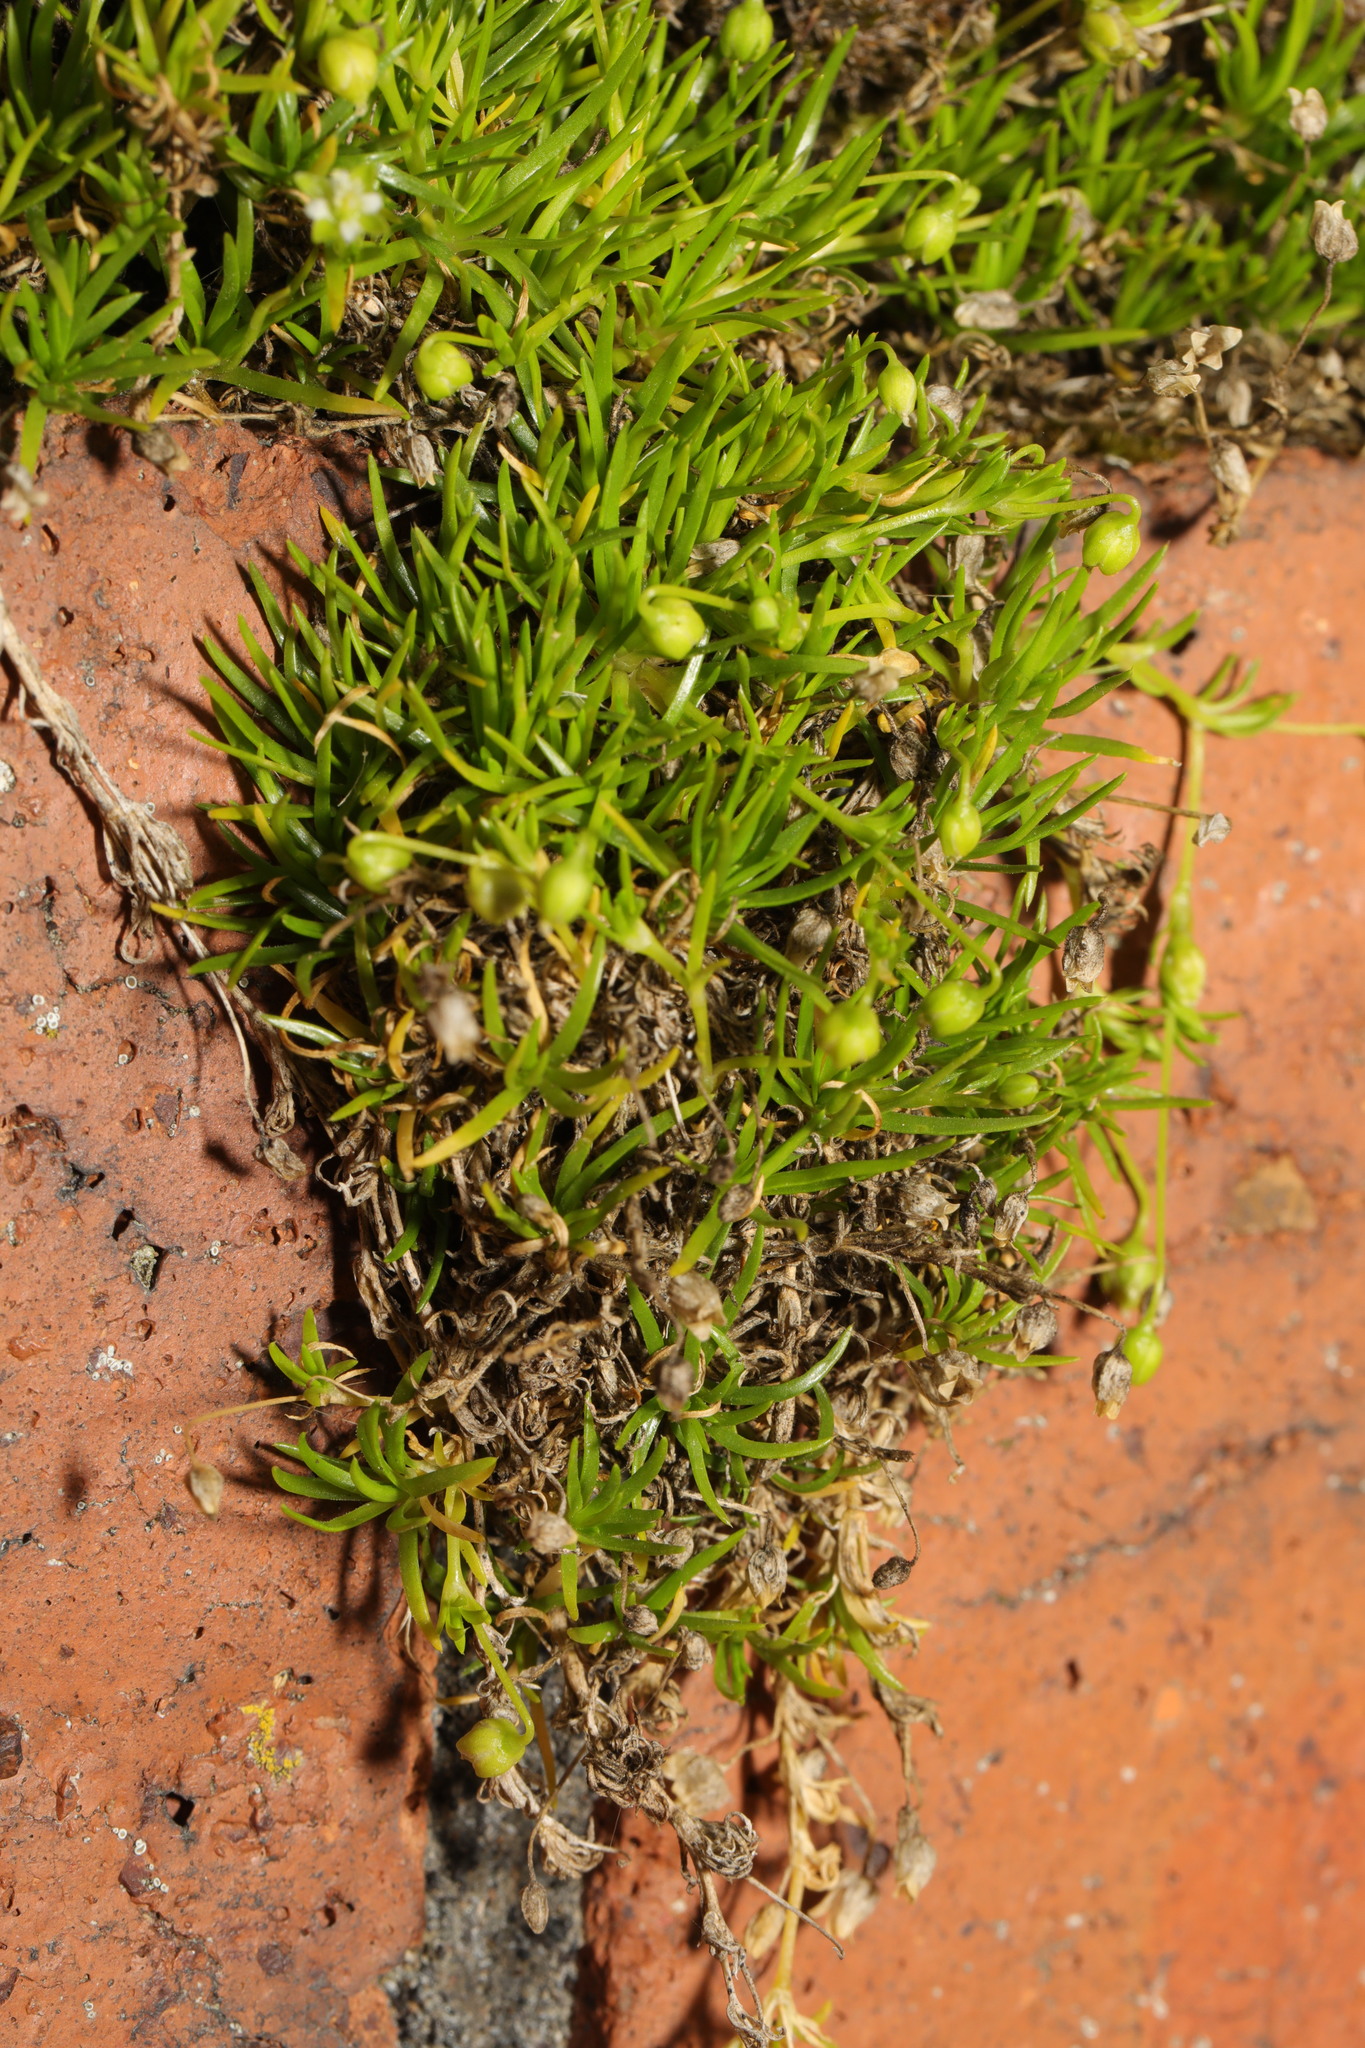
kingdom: Plantae
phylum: Tracheophyta
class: Magnoliopsida
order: Caryophyllales
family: Caryophyllaceae
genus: Sagina
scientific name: Sagina procumbens
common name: Procumbent pearlwort
